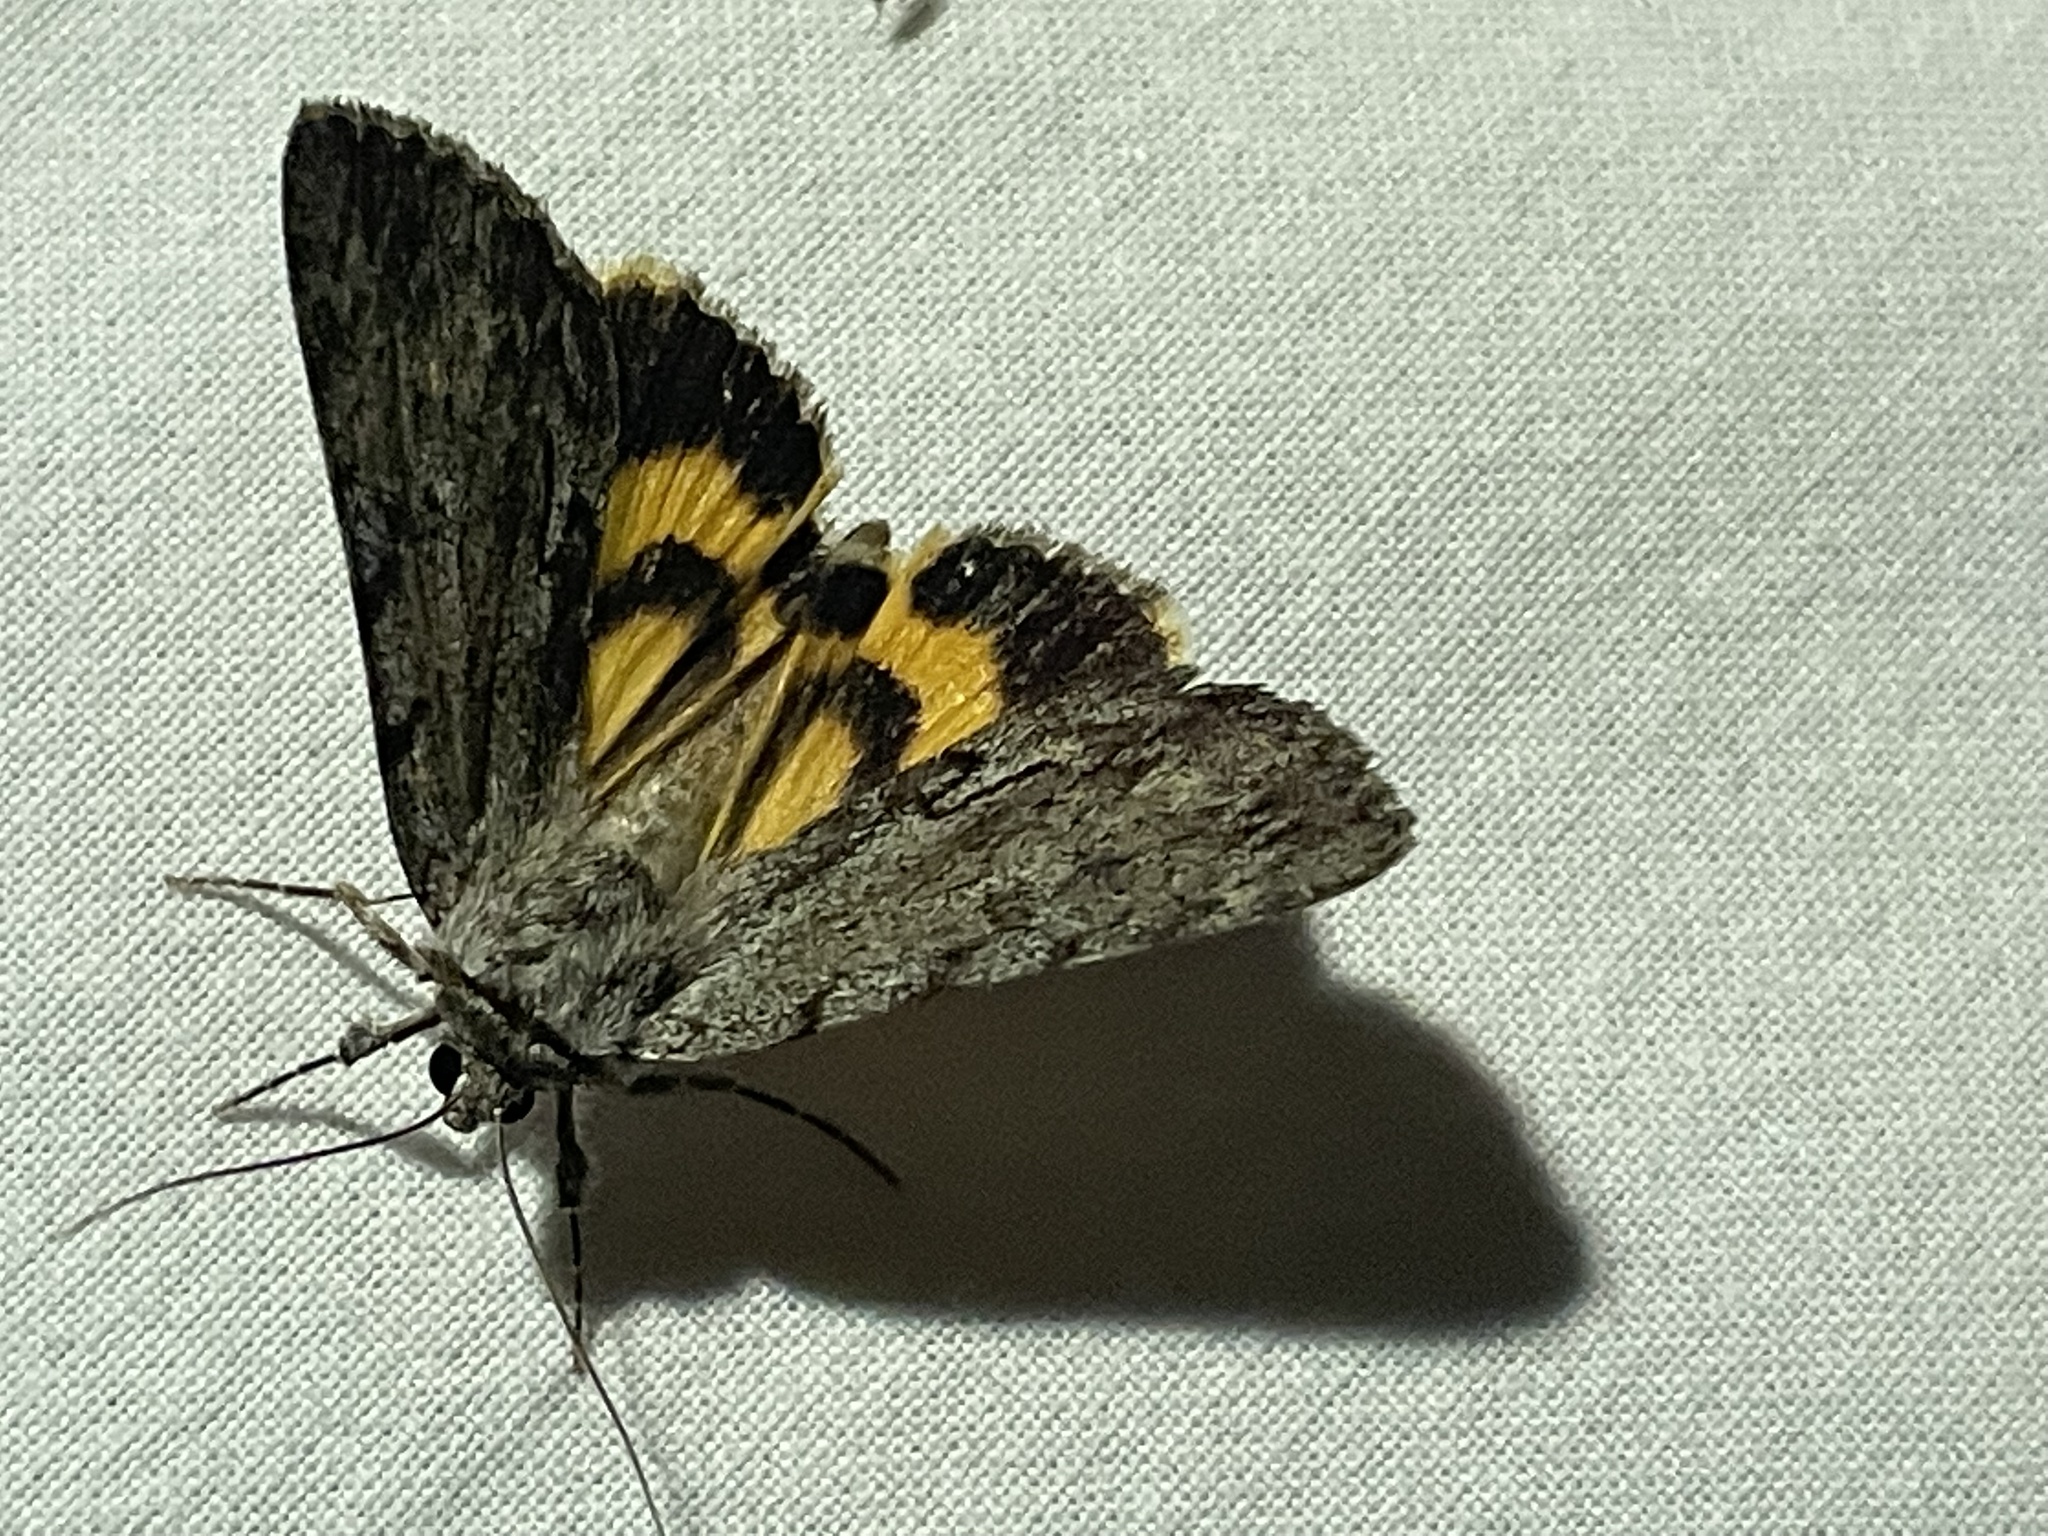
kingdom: Animalia
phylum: Arthropoda
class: Insecta
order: Lepidoptera
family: Erebidae
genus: Catocala
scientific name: Catocala sordida
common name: Sordid underwing
